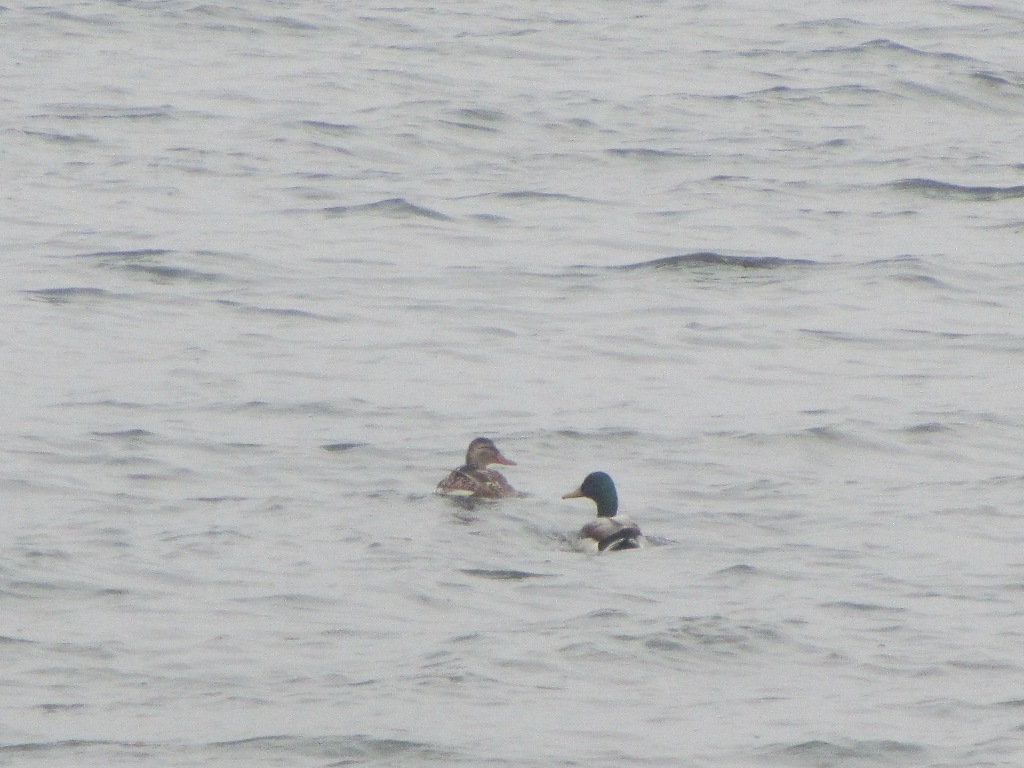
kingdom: Animalia
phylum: Chordata
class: Aves
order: Anseriformes
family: Anatidae
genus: Anas
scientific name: Anas platyrhynchos
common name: Mallard
